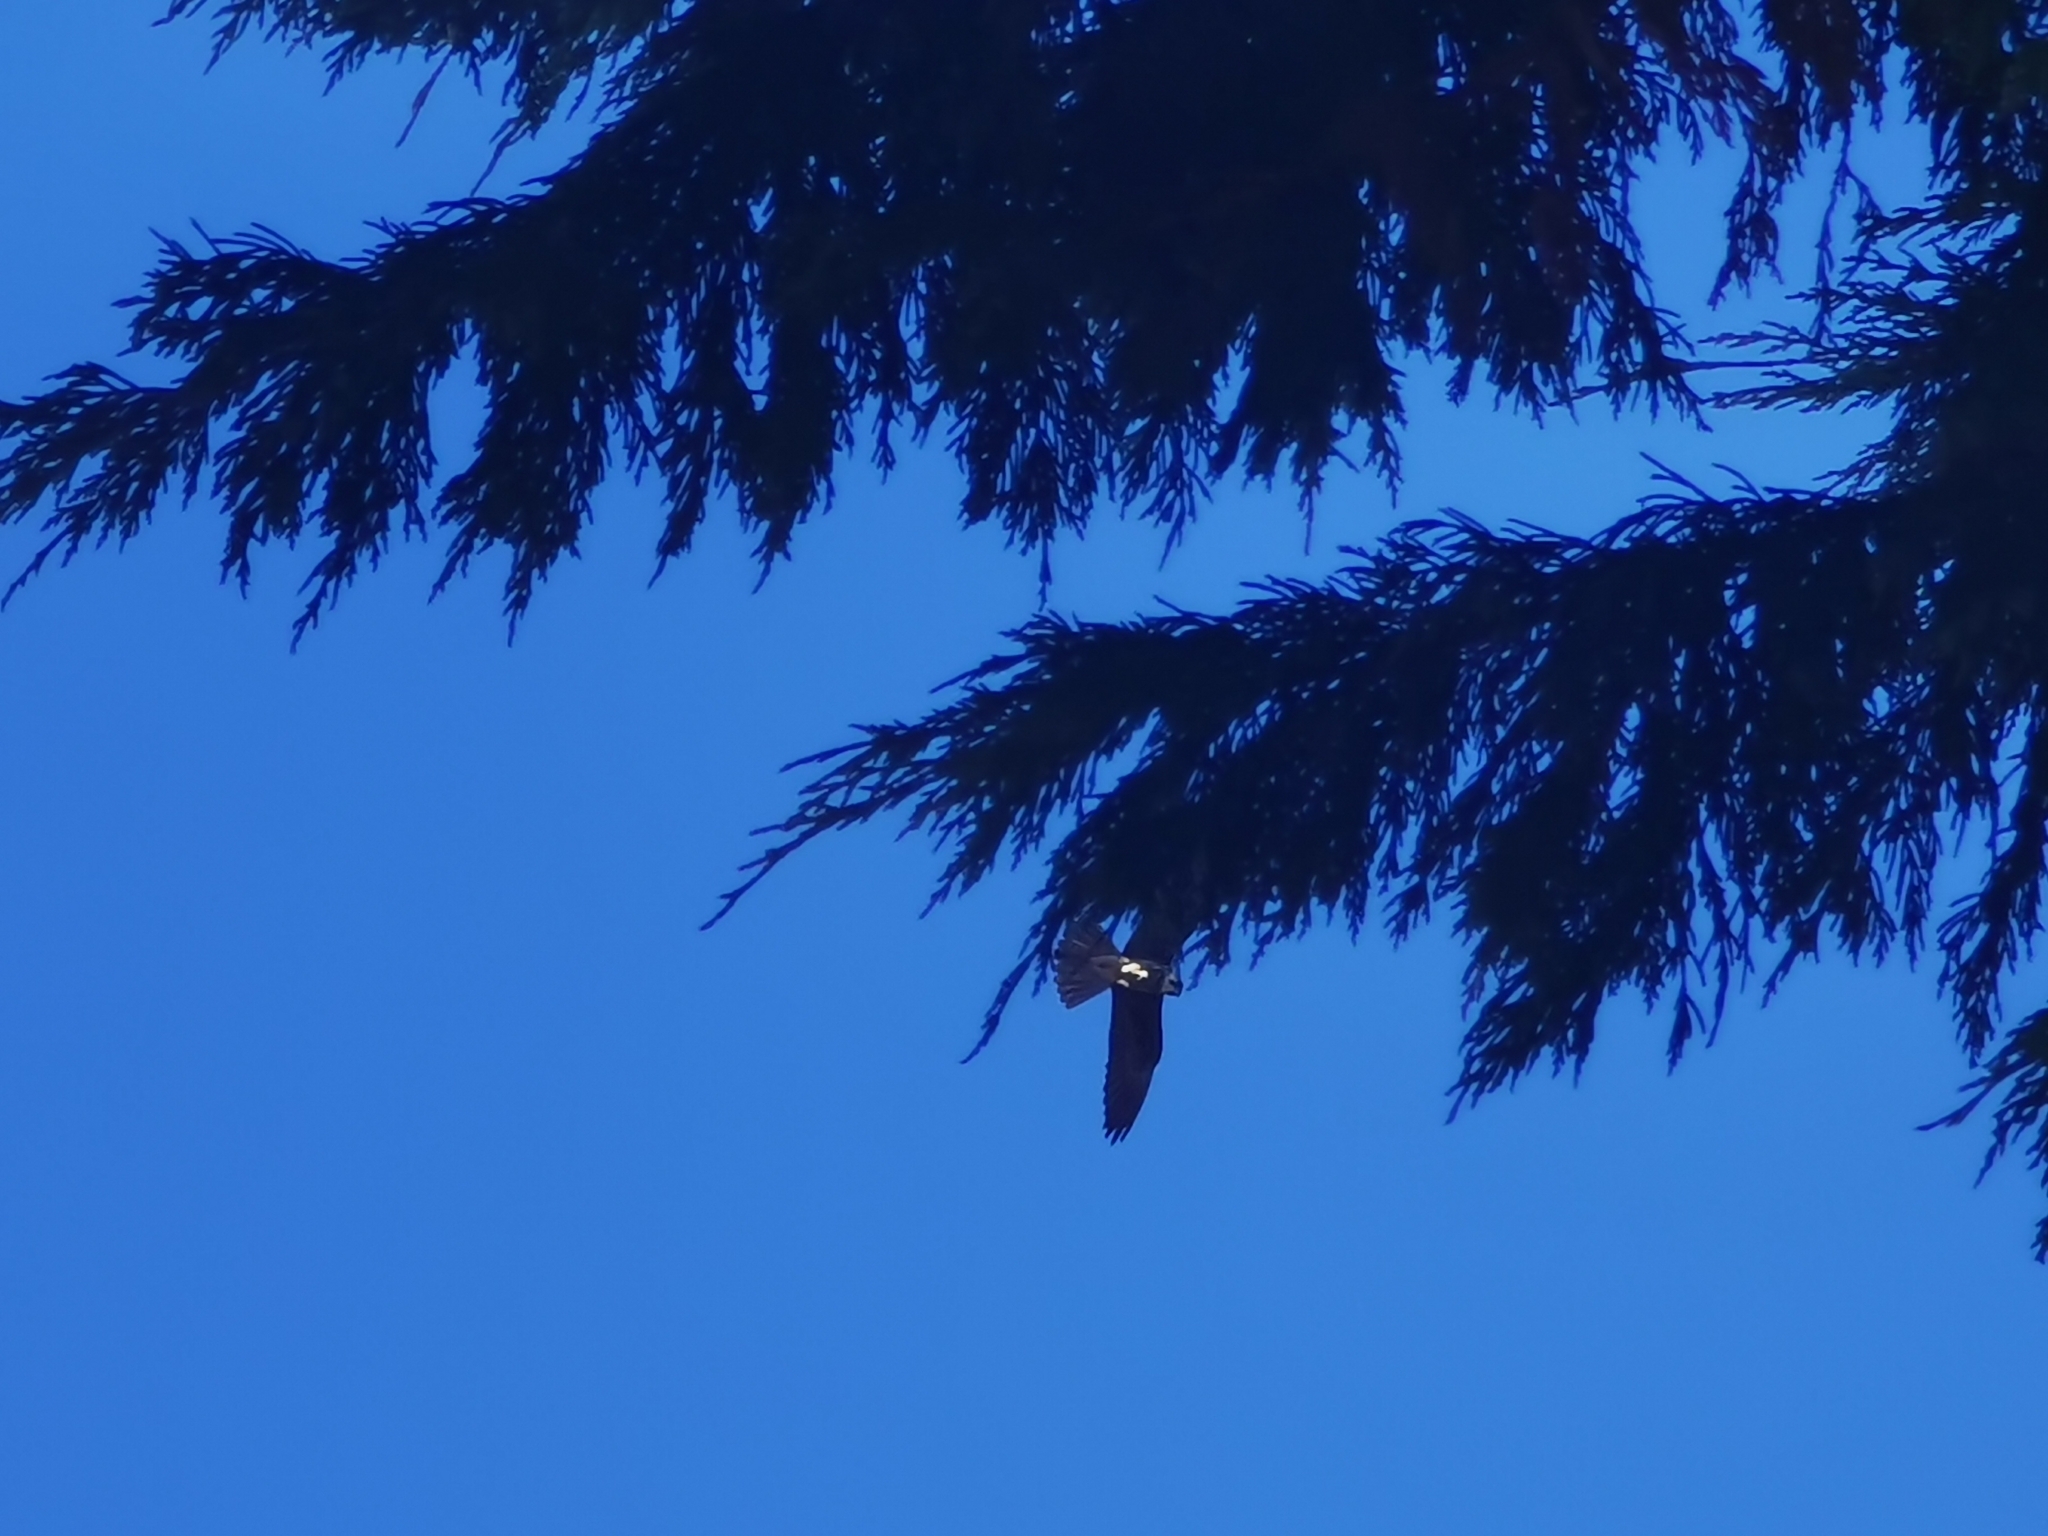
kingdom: Animalia
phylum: Chordata
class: Aves
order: Falconiformes
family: Falconidae
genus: Falco
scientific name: Falco eleonorae
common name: Eleonora's falcon
